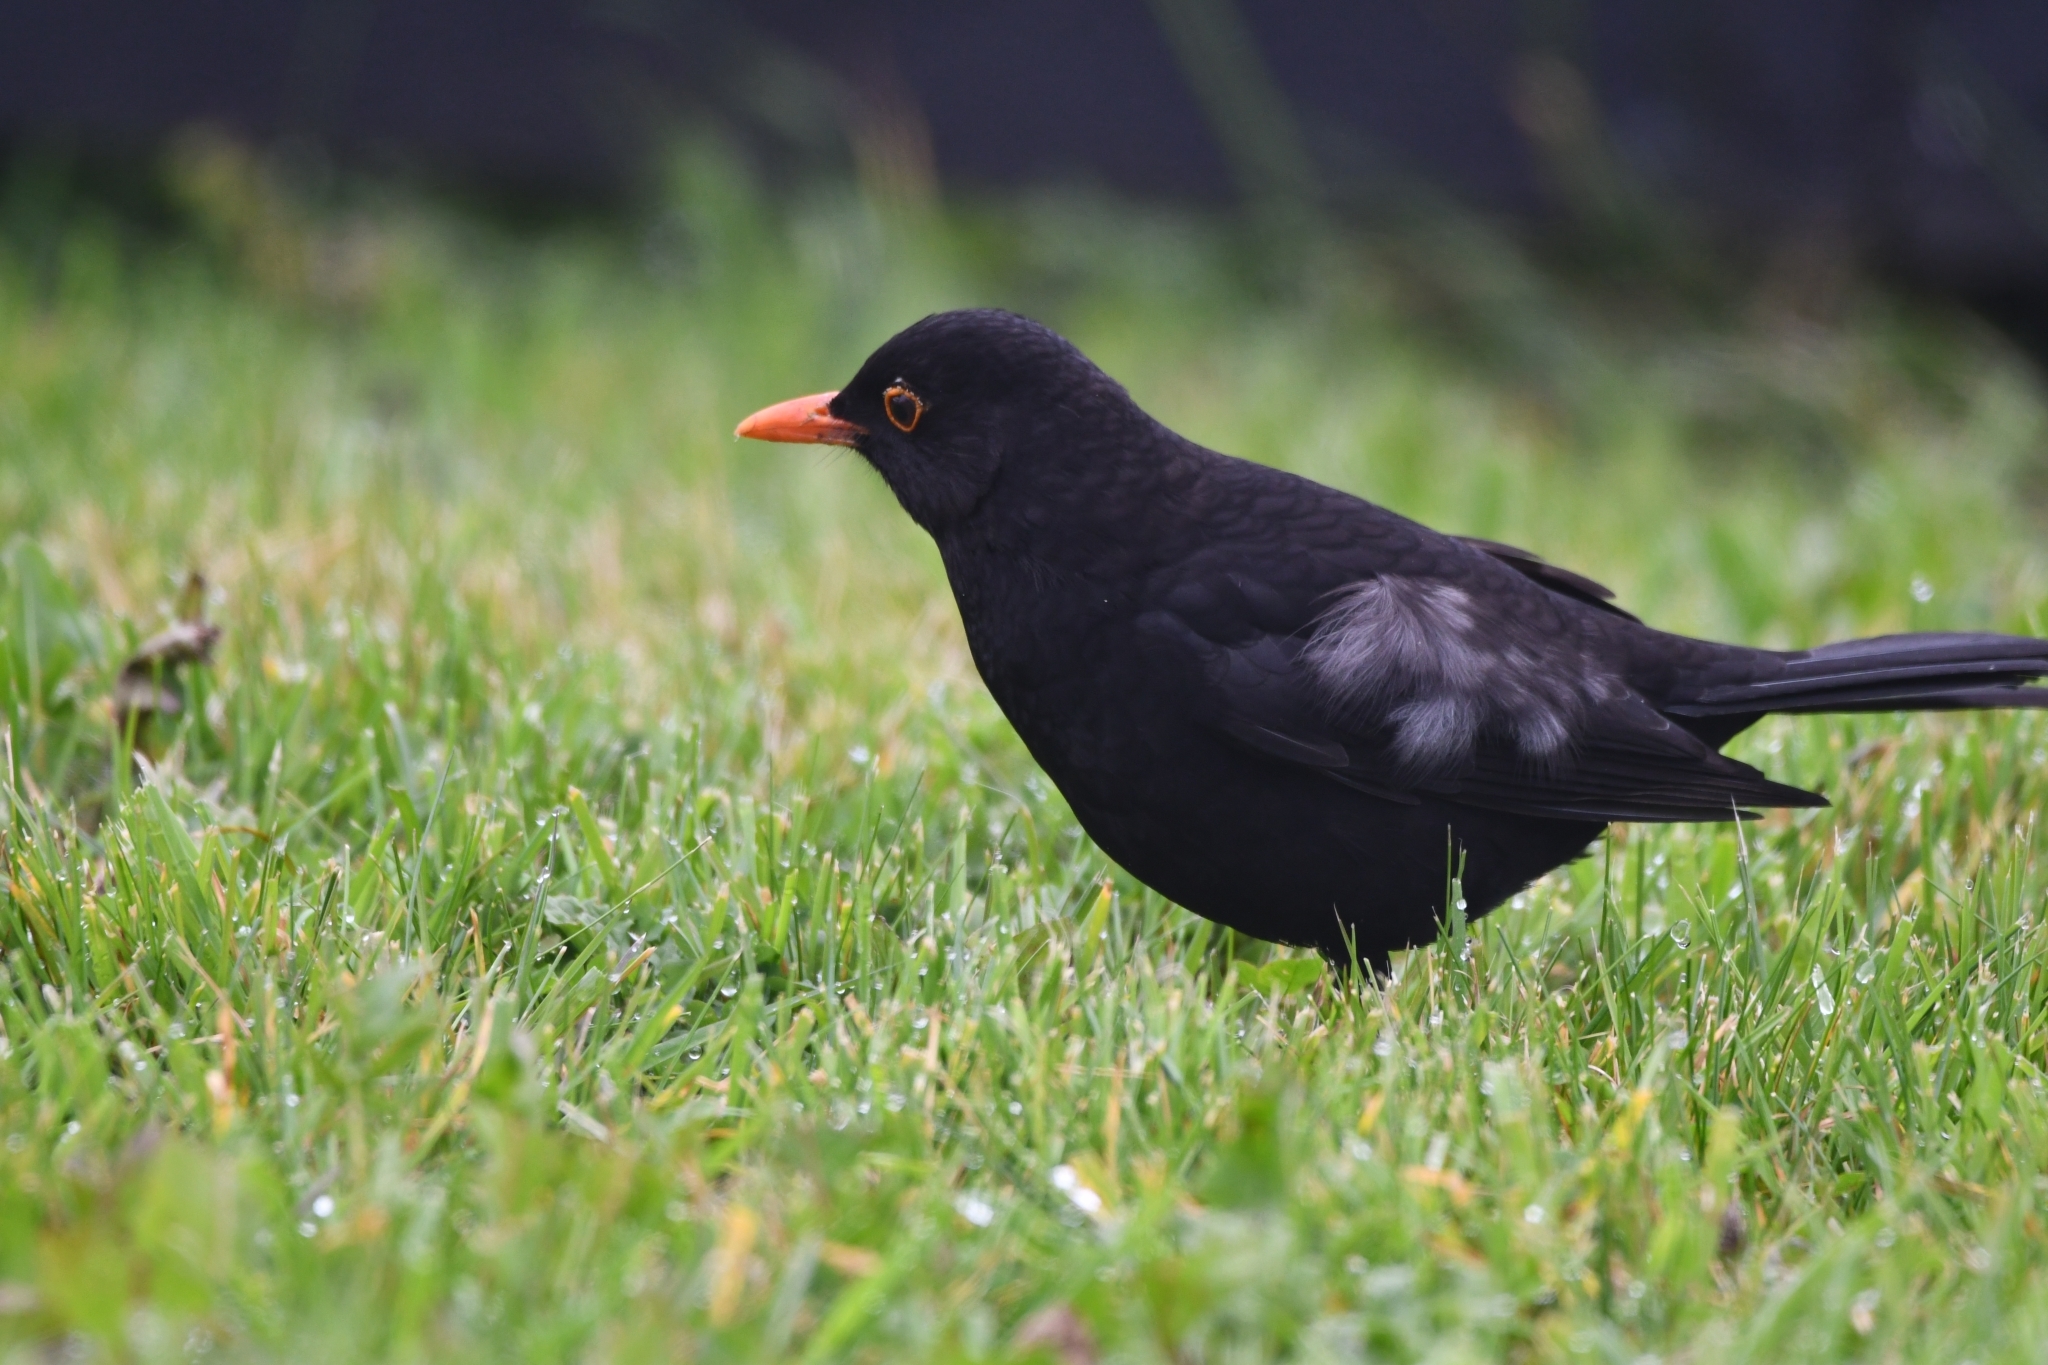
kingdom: Animalia
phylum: Chordata
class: Aves
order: Passeriformes
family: Turdidae
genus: Turdus
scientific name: Turdus merula
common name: Common blackbird
